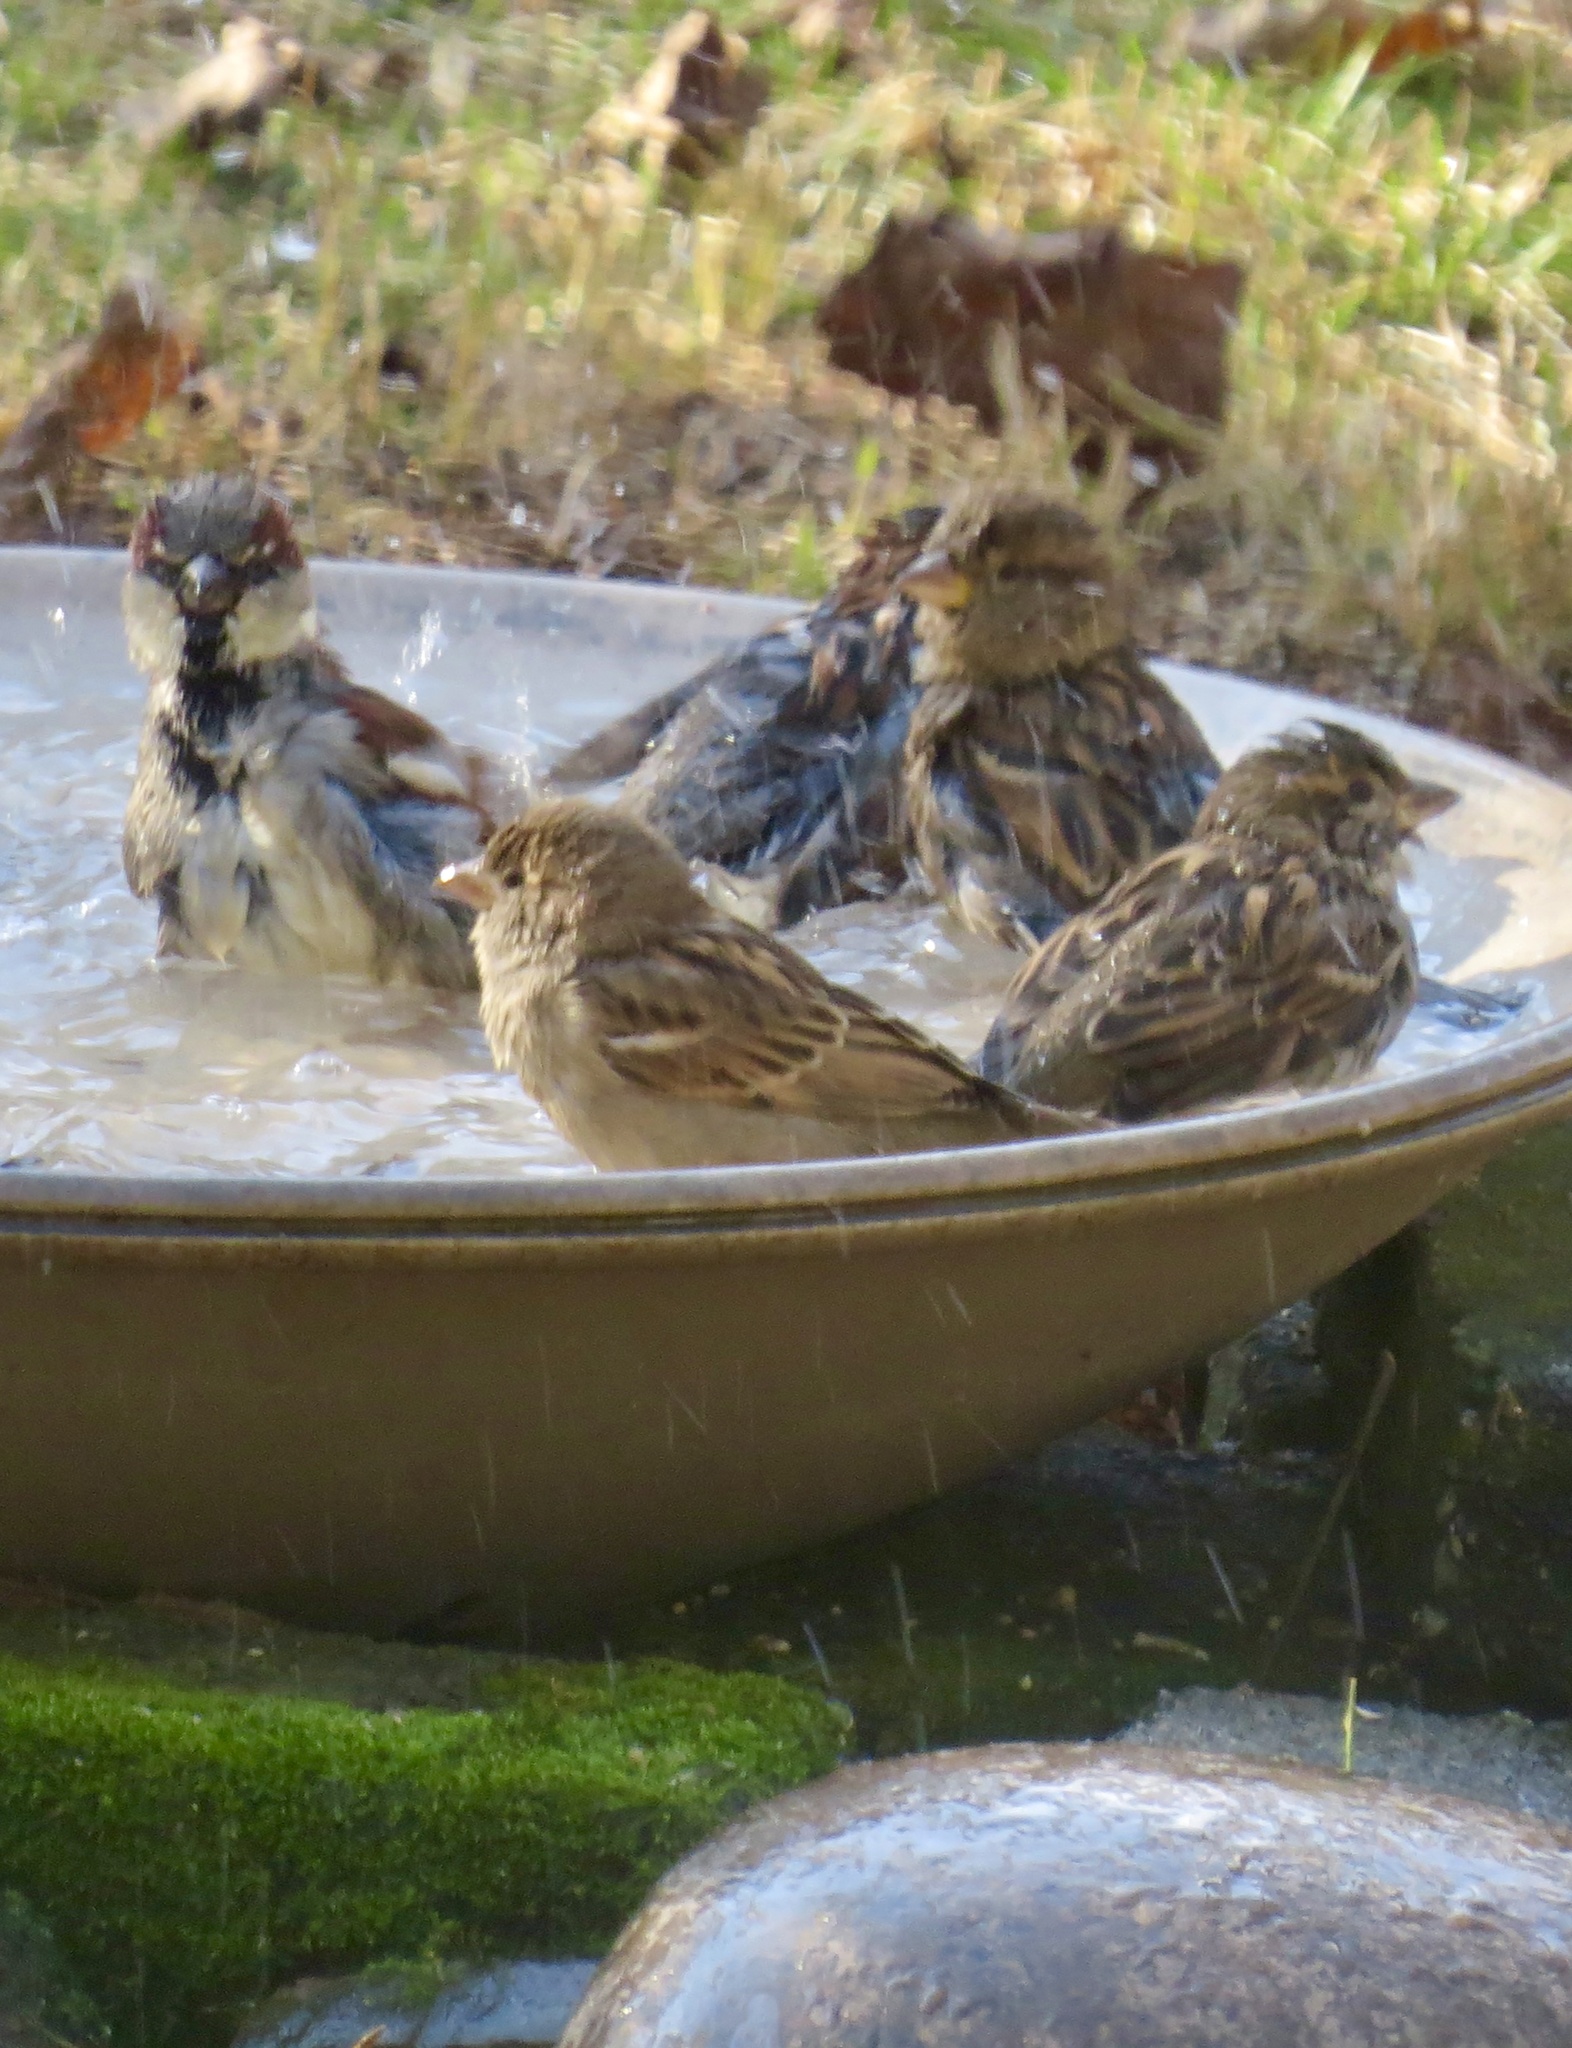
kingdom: Animalia
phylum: Chordata
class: Aves
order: Passeriformes
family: Passeridae
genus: Passer
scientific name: Passer domesticus
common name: House sparrow
